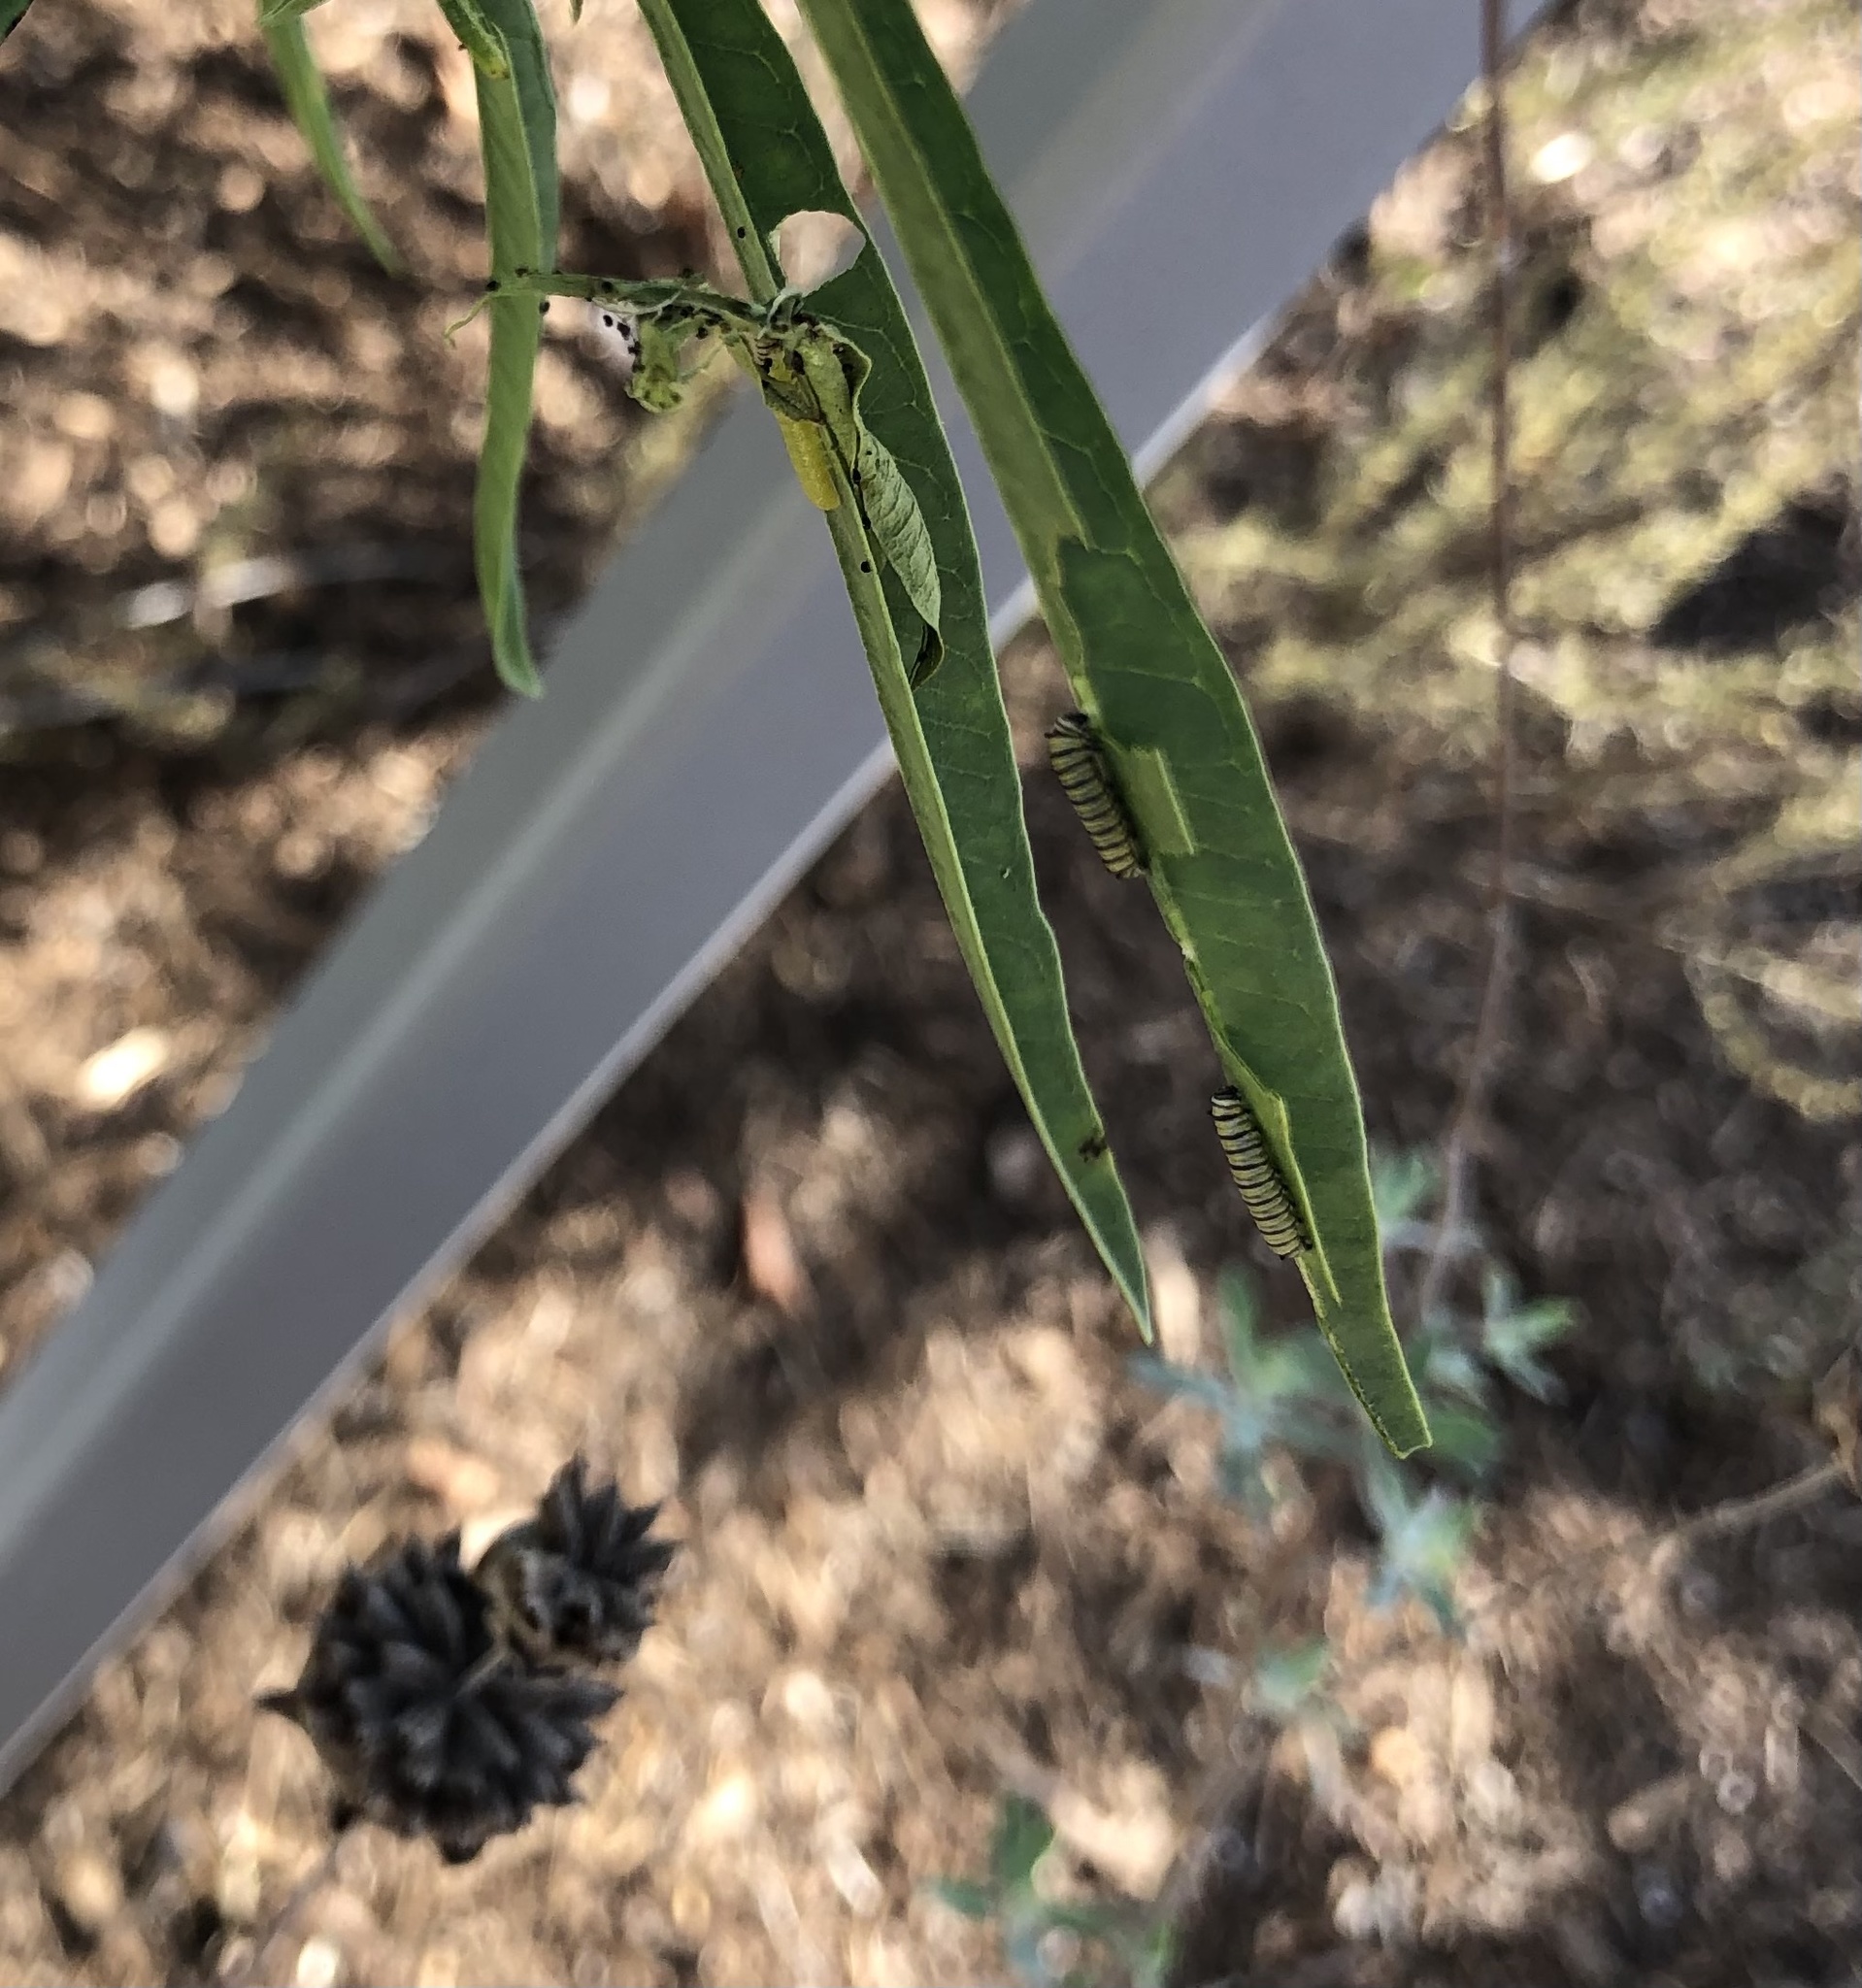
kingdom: Animalia
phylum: Arthropoda
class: Insecta
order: Lepidoptera
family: Nymphalidae
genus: Danaus
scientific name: Danaus plexippus
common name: Monarch
